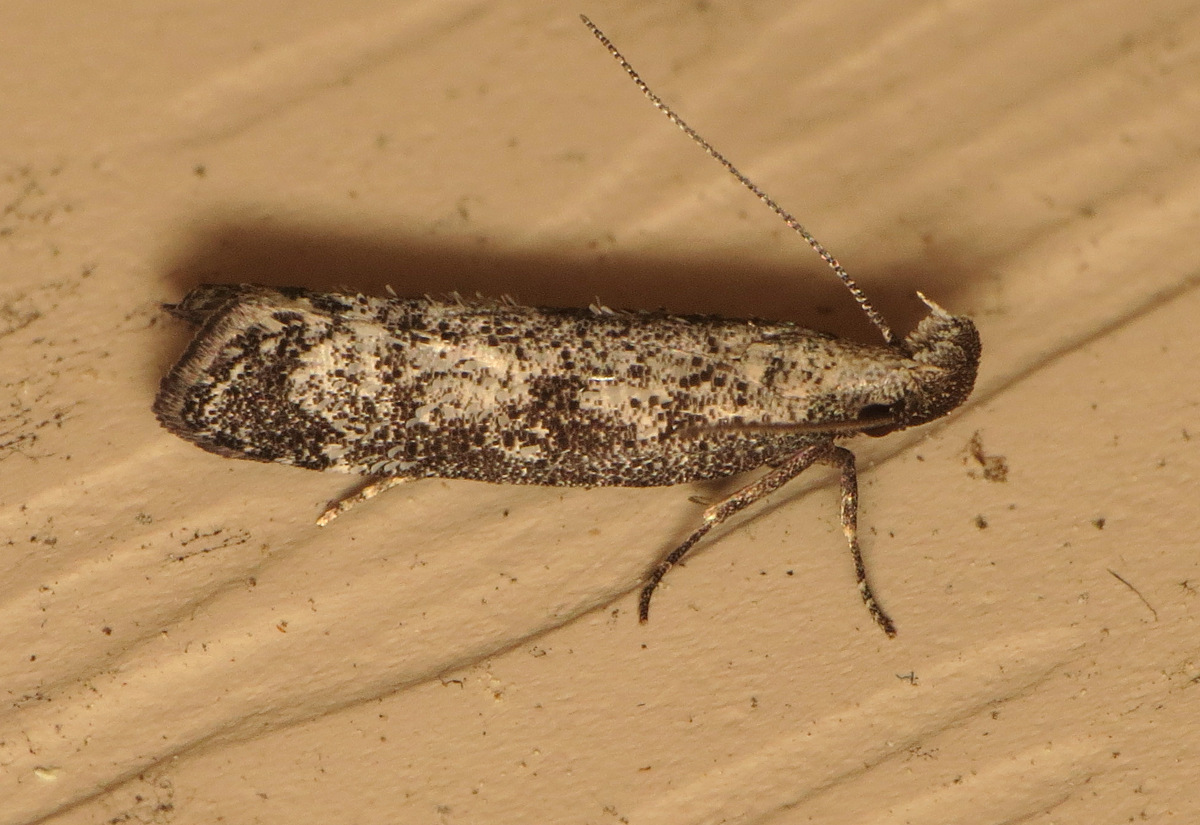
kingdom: Animalia
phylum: Arthropoda
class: Insecta
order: Lepidoptera
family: Gelechiidae
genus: Dichomeris
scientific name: Dichomeris inversella
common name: Inverse dichomeris moth
